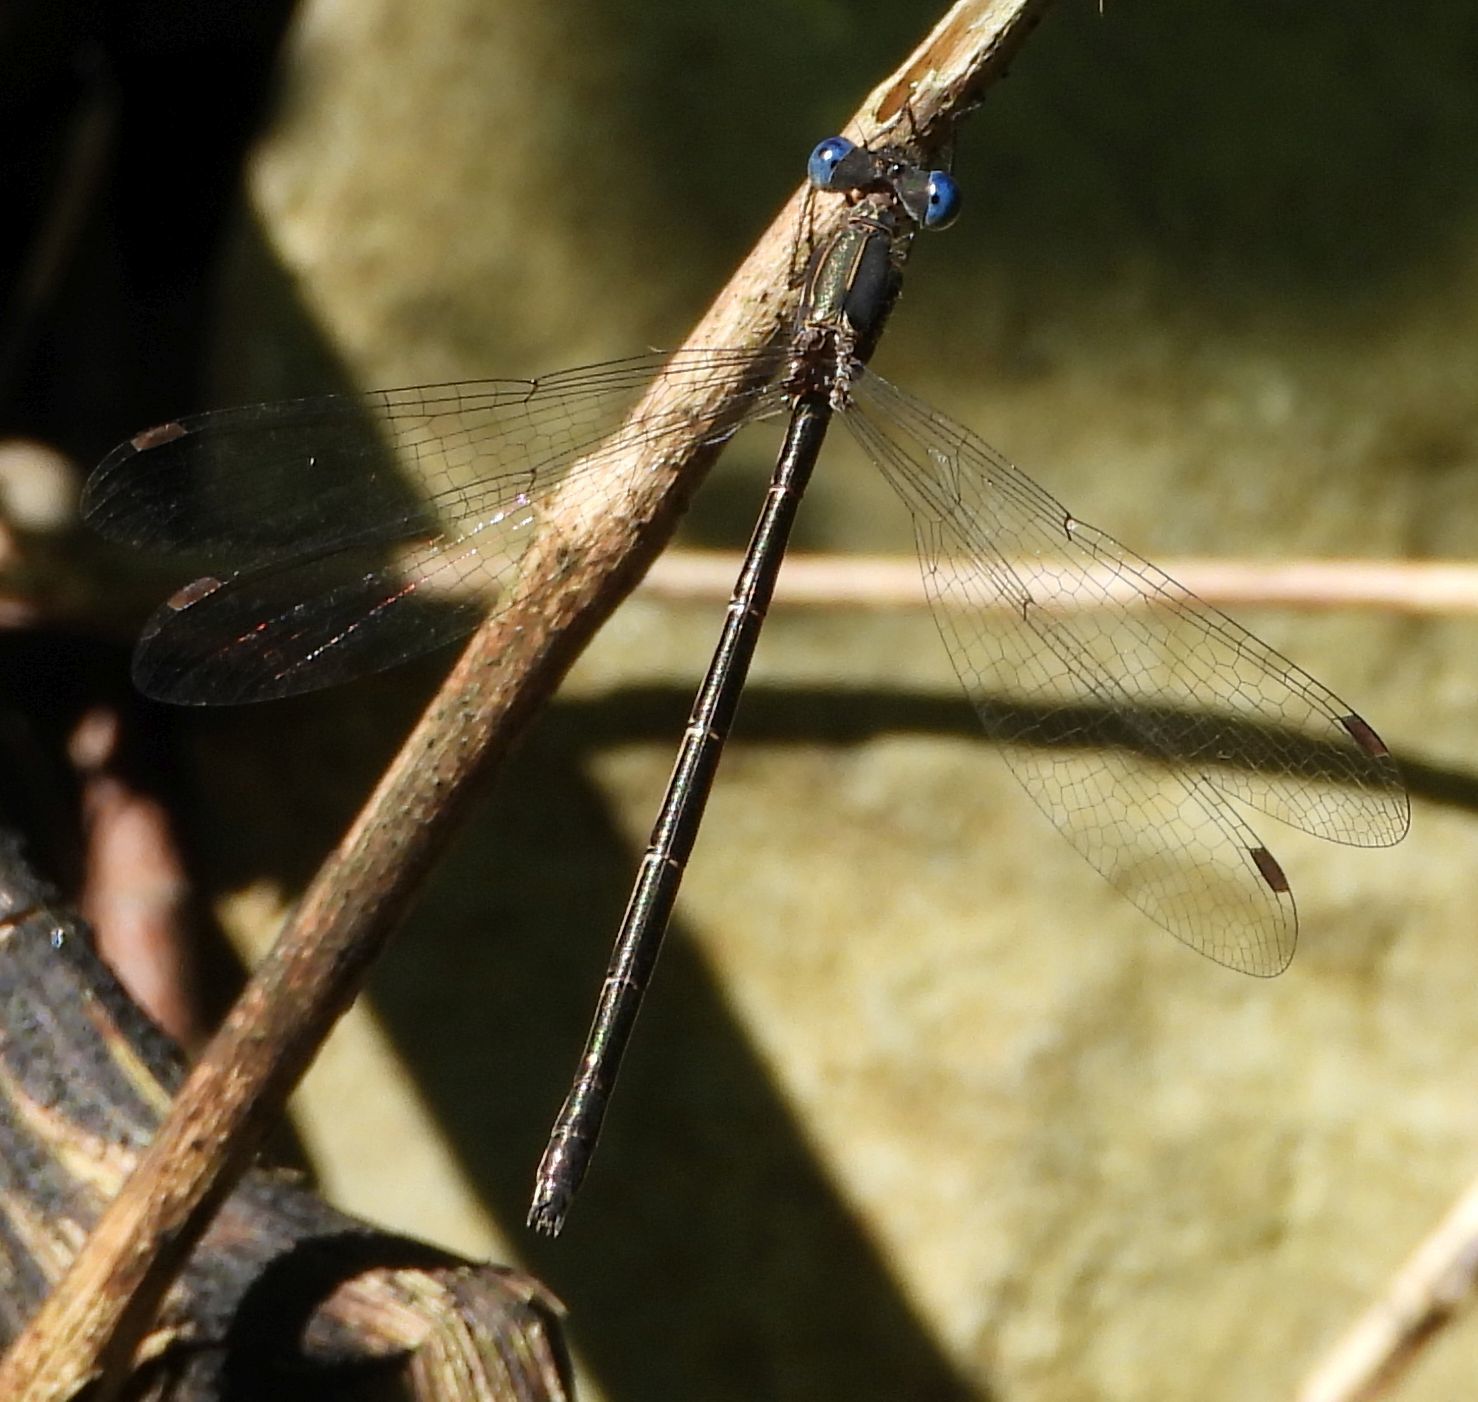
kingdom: Animalia
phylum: Arthropoda
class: Insecta
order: Odonata
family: Lestidae
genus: Lestes
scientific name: Lestes congener
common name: Spotted spreadwing
